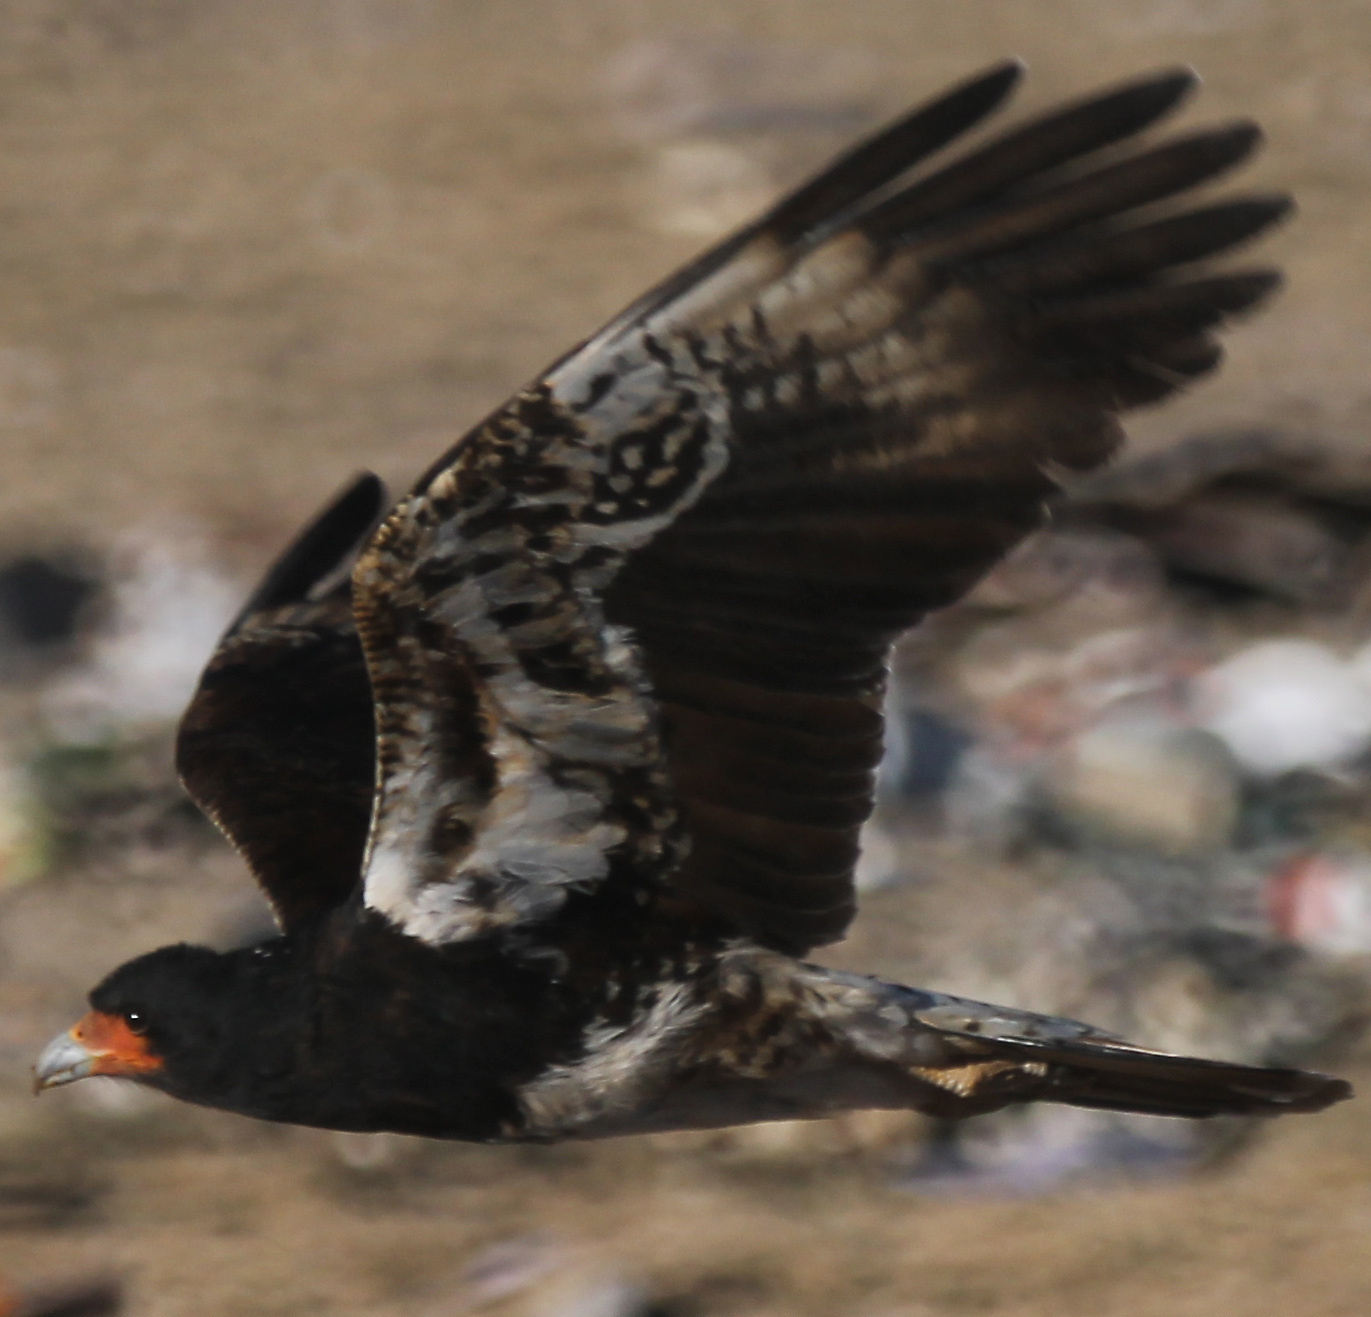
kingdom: Animalia
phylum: Chordata
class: Aves
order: Falconiformes
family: Falconidae
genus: Daptrius
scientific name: Daptrius
